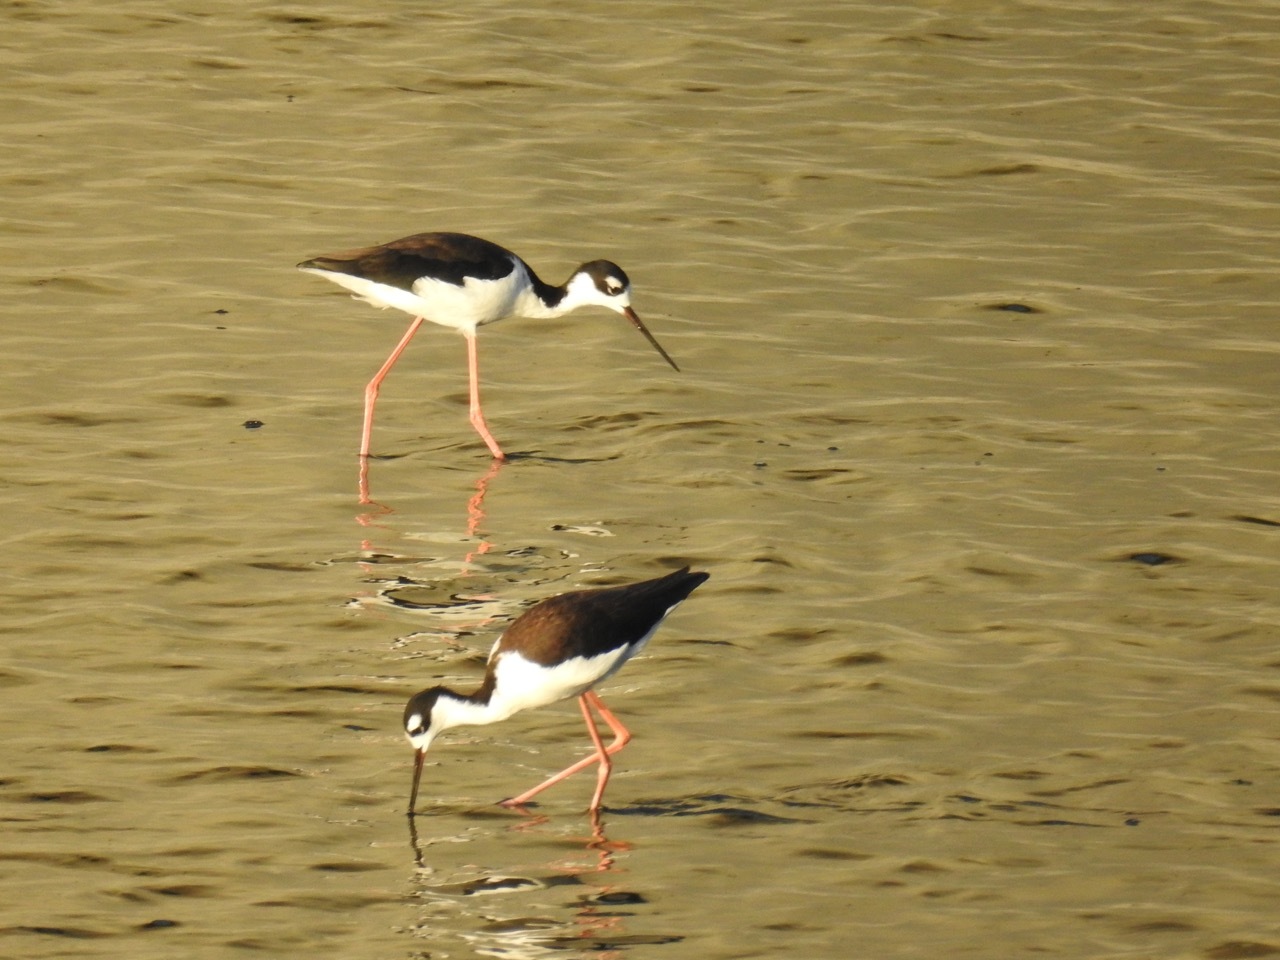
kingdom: Animalia
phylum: Chordata
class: Aves
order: Charadriiformes
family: Recurvirostridae
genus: Himantopus
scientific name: Himantopus mexicanus
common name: Black-necked stilt
